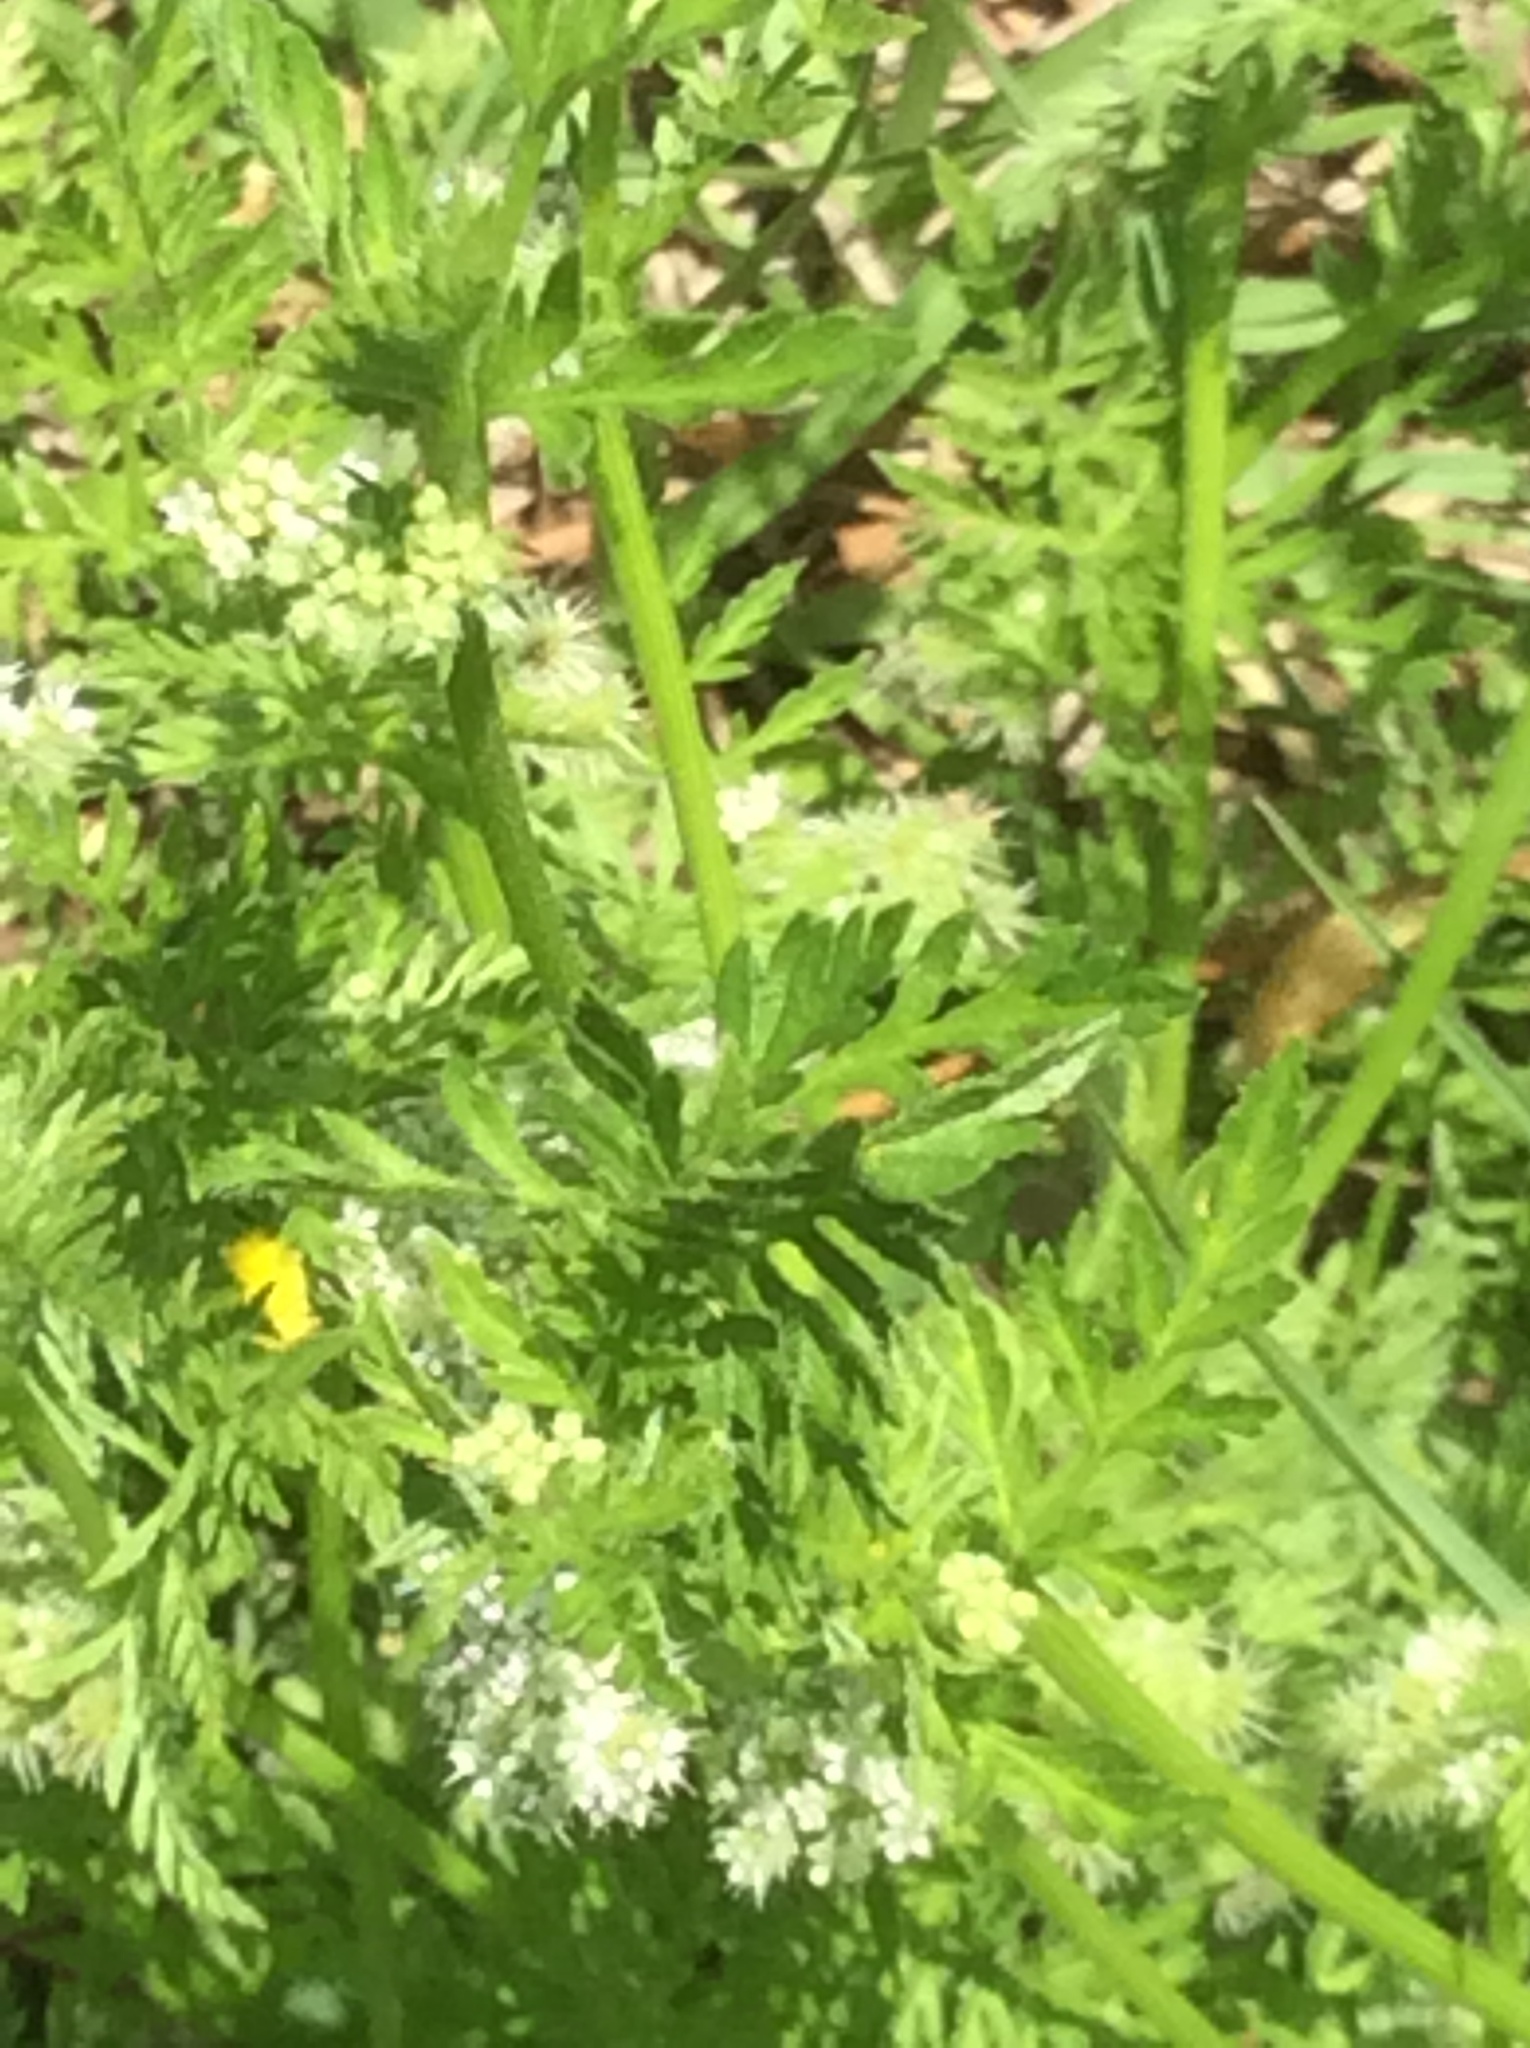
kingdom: Plantae
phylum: Tracheophyta
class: Magnoliopsida
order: Apiales
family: Apiaceae
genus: Torilis
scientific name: Torilis nodosa
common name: Knotted hedge-parsley
